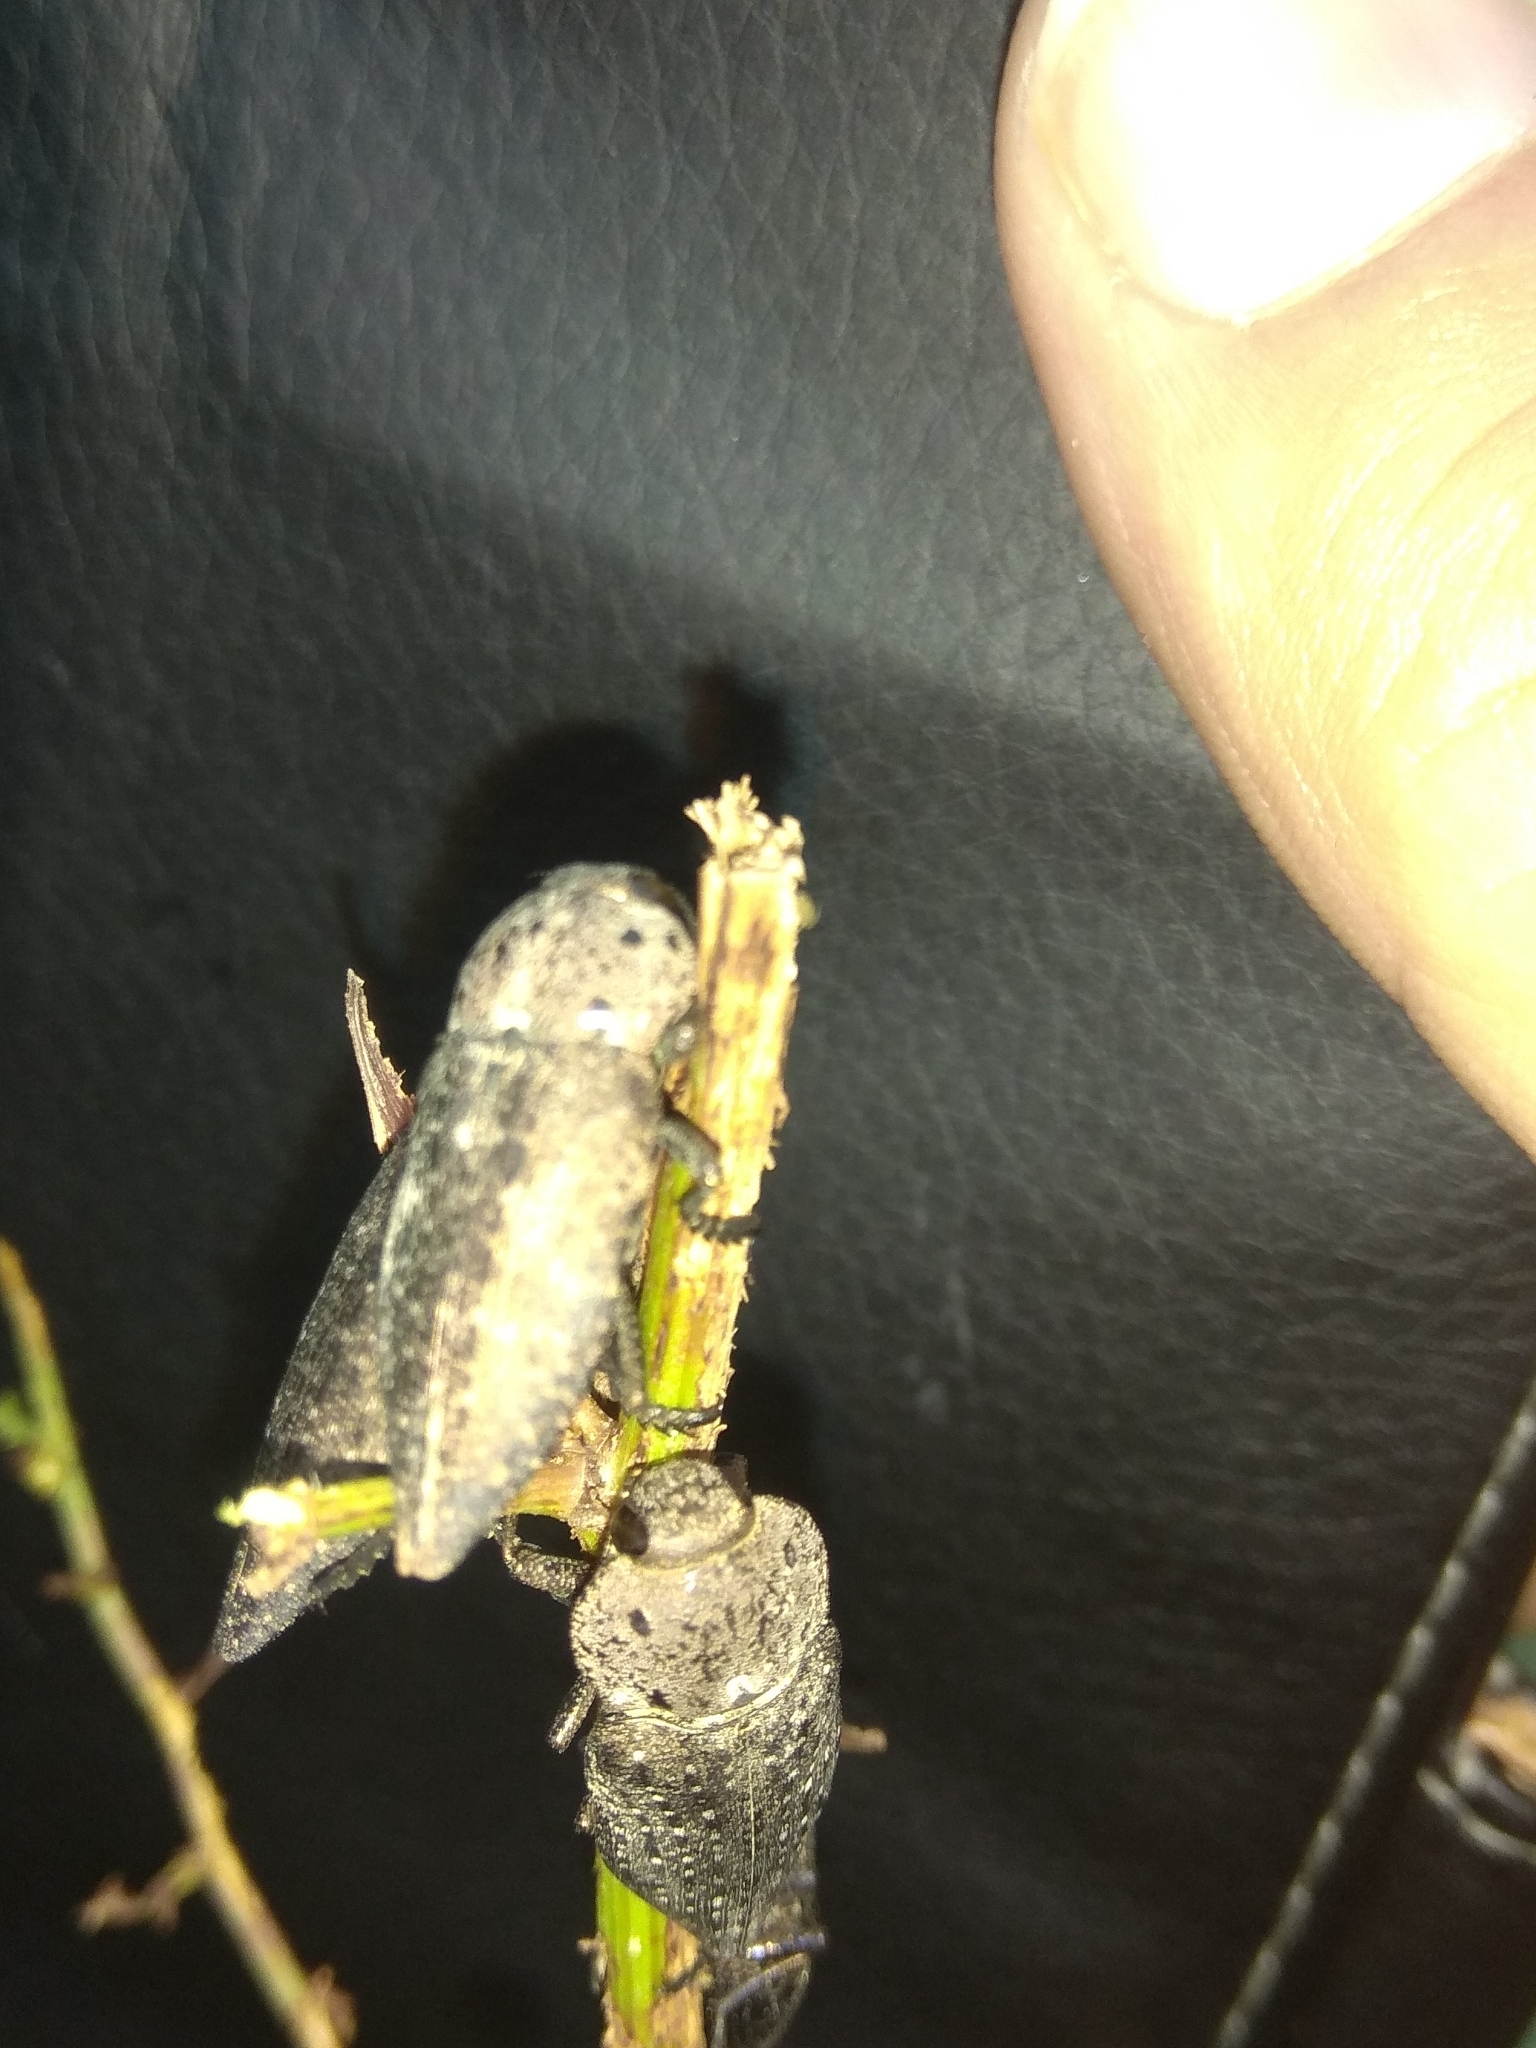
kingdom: Animalia
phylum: Arthropoda
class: Insecta
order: Coleoptera
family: Buprestidae
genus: Capnodis
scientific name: Capnodis tenebricosa
